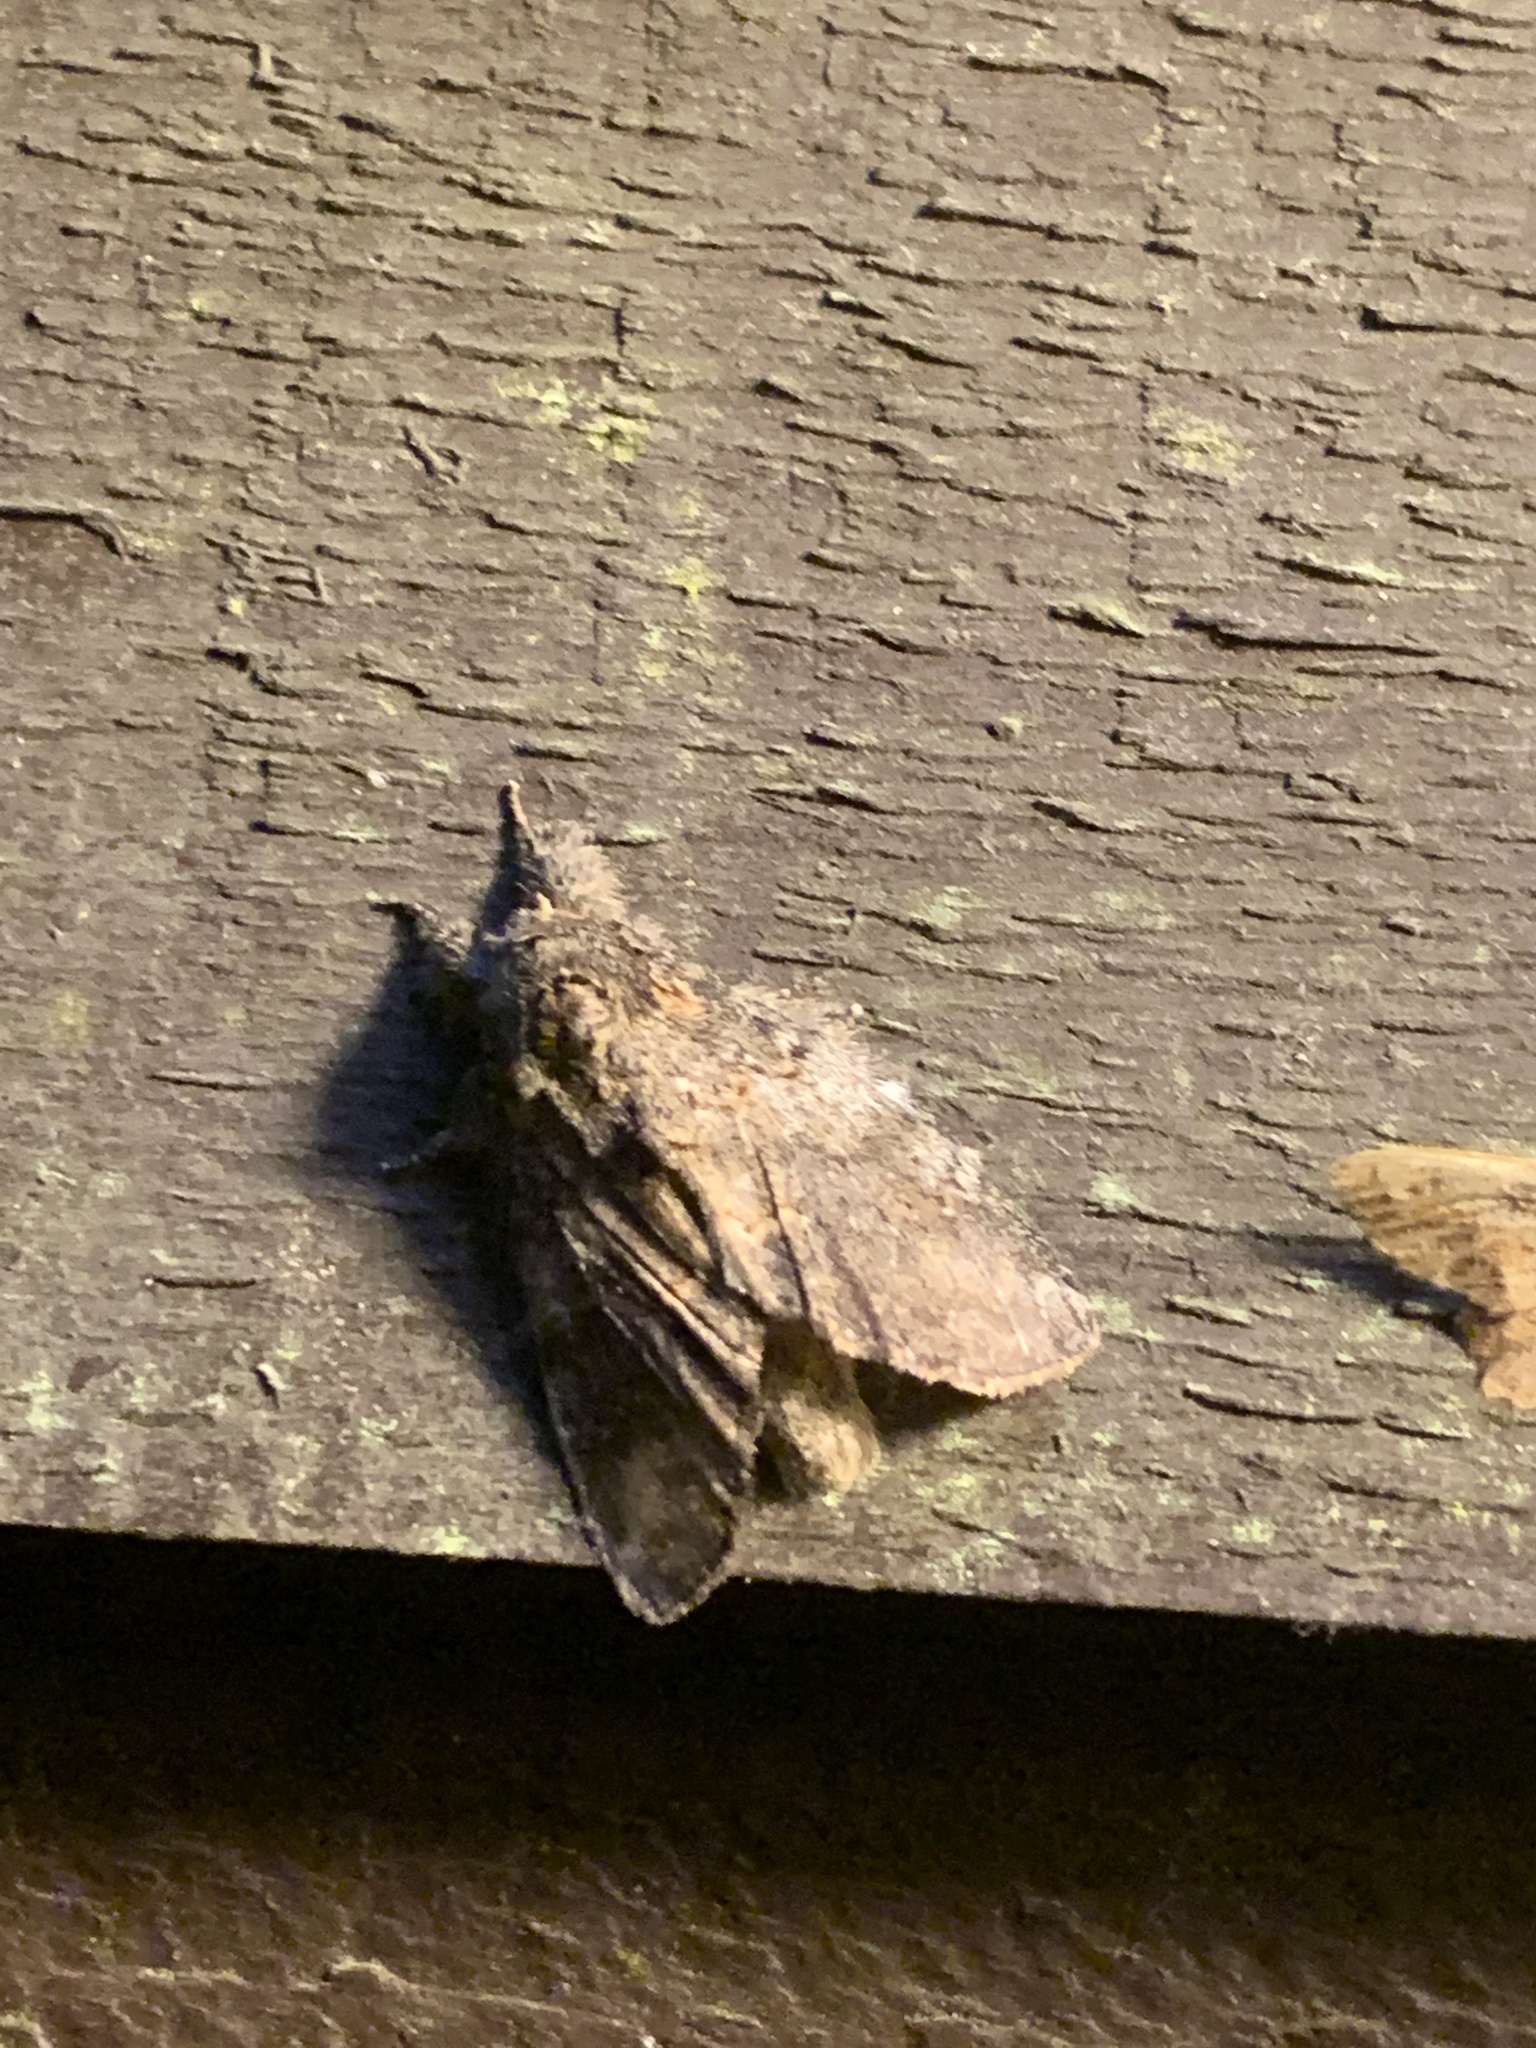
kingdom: Animalia
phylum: Arthropoda
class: Insecta
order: Lepidoptera
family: Notodontidae
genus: Peridea
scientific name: Peridea angulosa
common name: Angulose prominent
